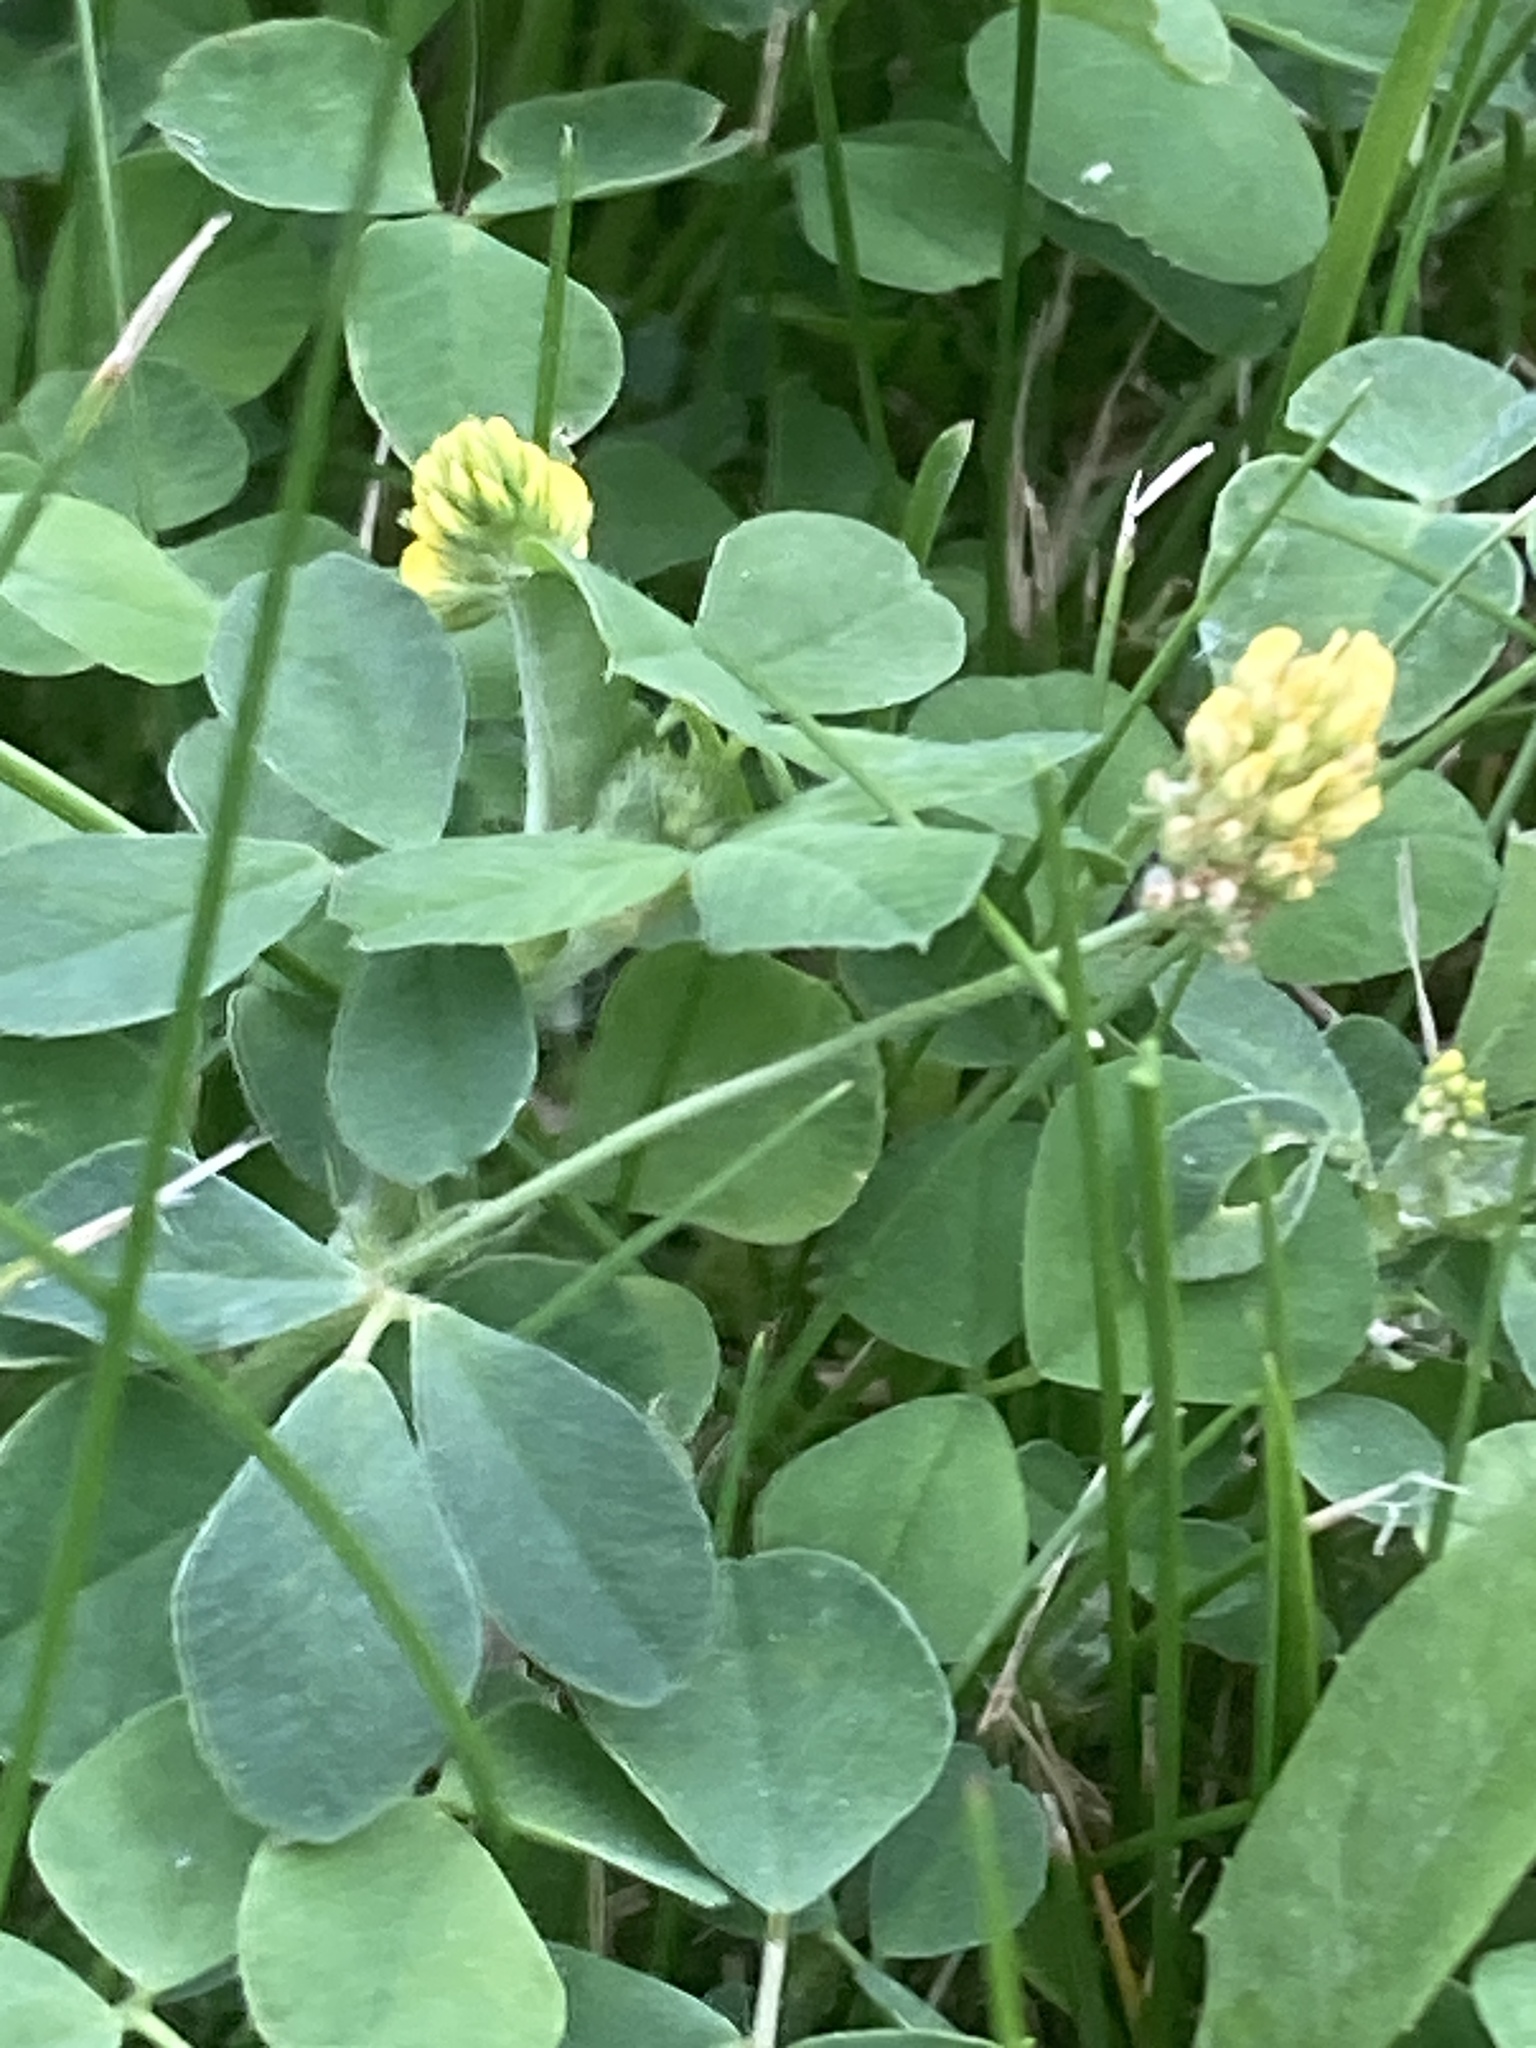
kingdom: Plantae
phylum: Tracheophyta
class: Magnoliopsida
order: Fabales
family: Fabaceae
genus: Medicago
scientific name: Medicago lupulina
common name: Black medick
